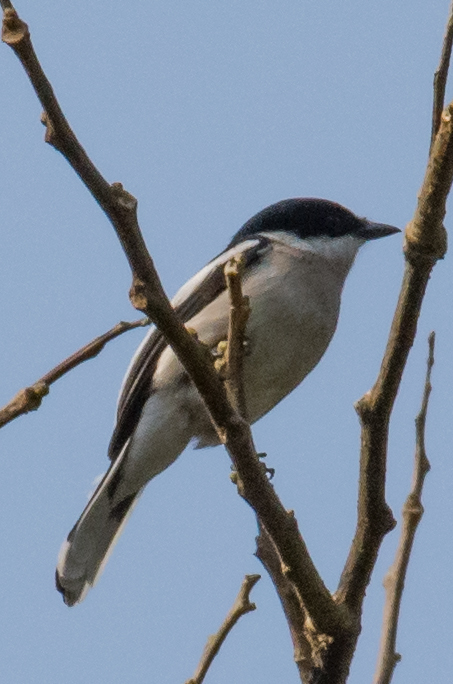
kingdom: Animalia
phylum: Chordata
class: Aves
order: Passeriformes
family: Tephrodornithidae
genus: Hemipus
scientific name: Hemipus picatus
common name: Bar-winged flycatcher-shrike
